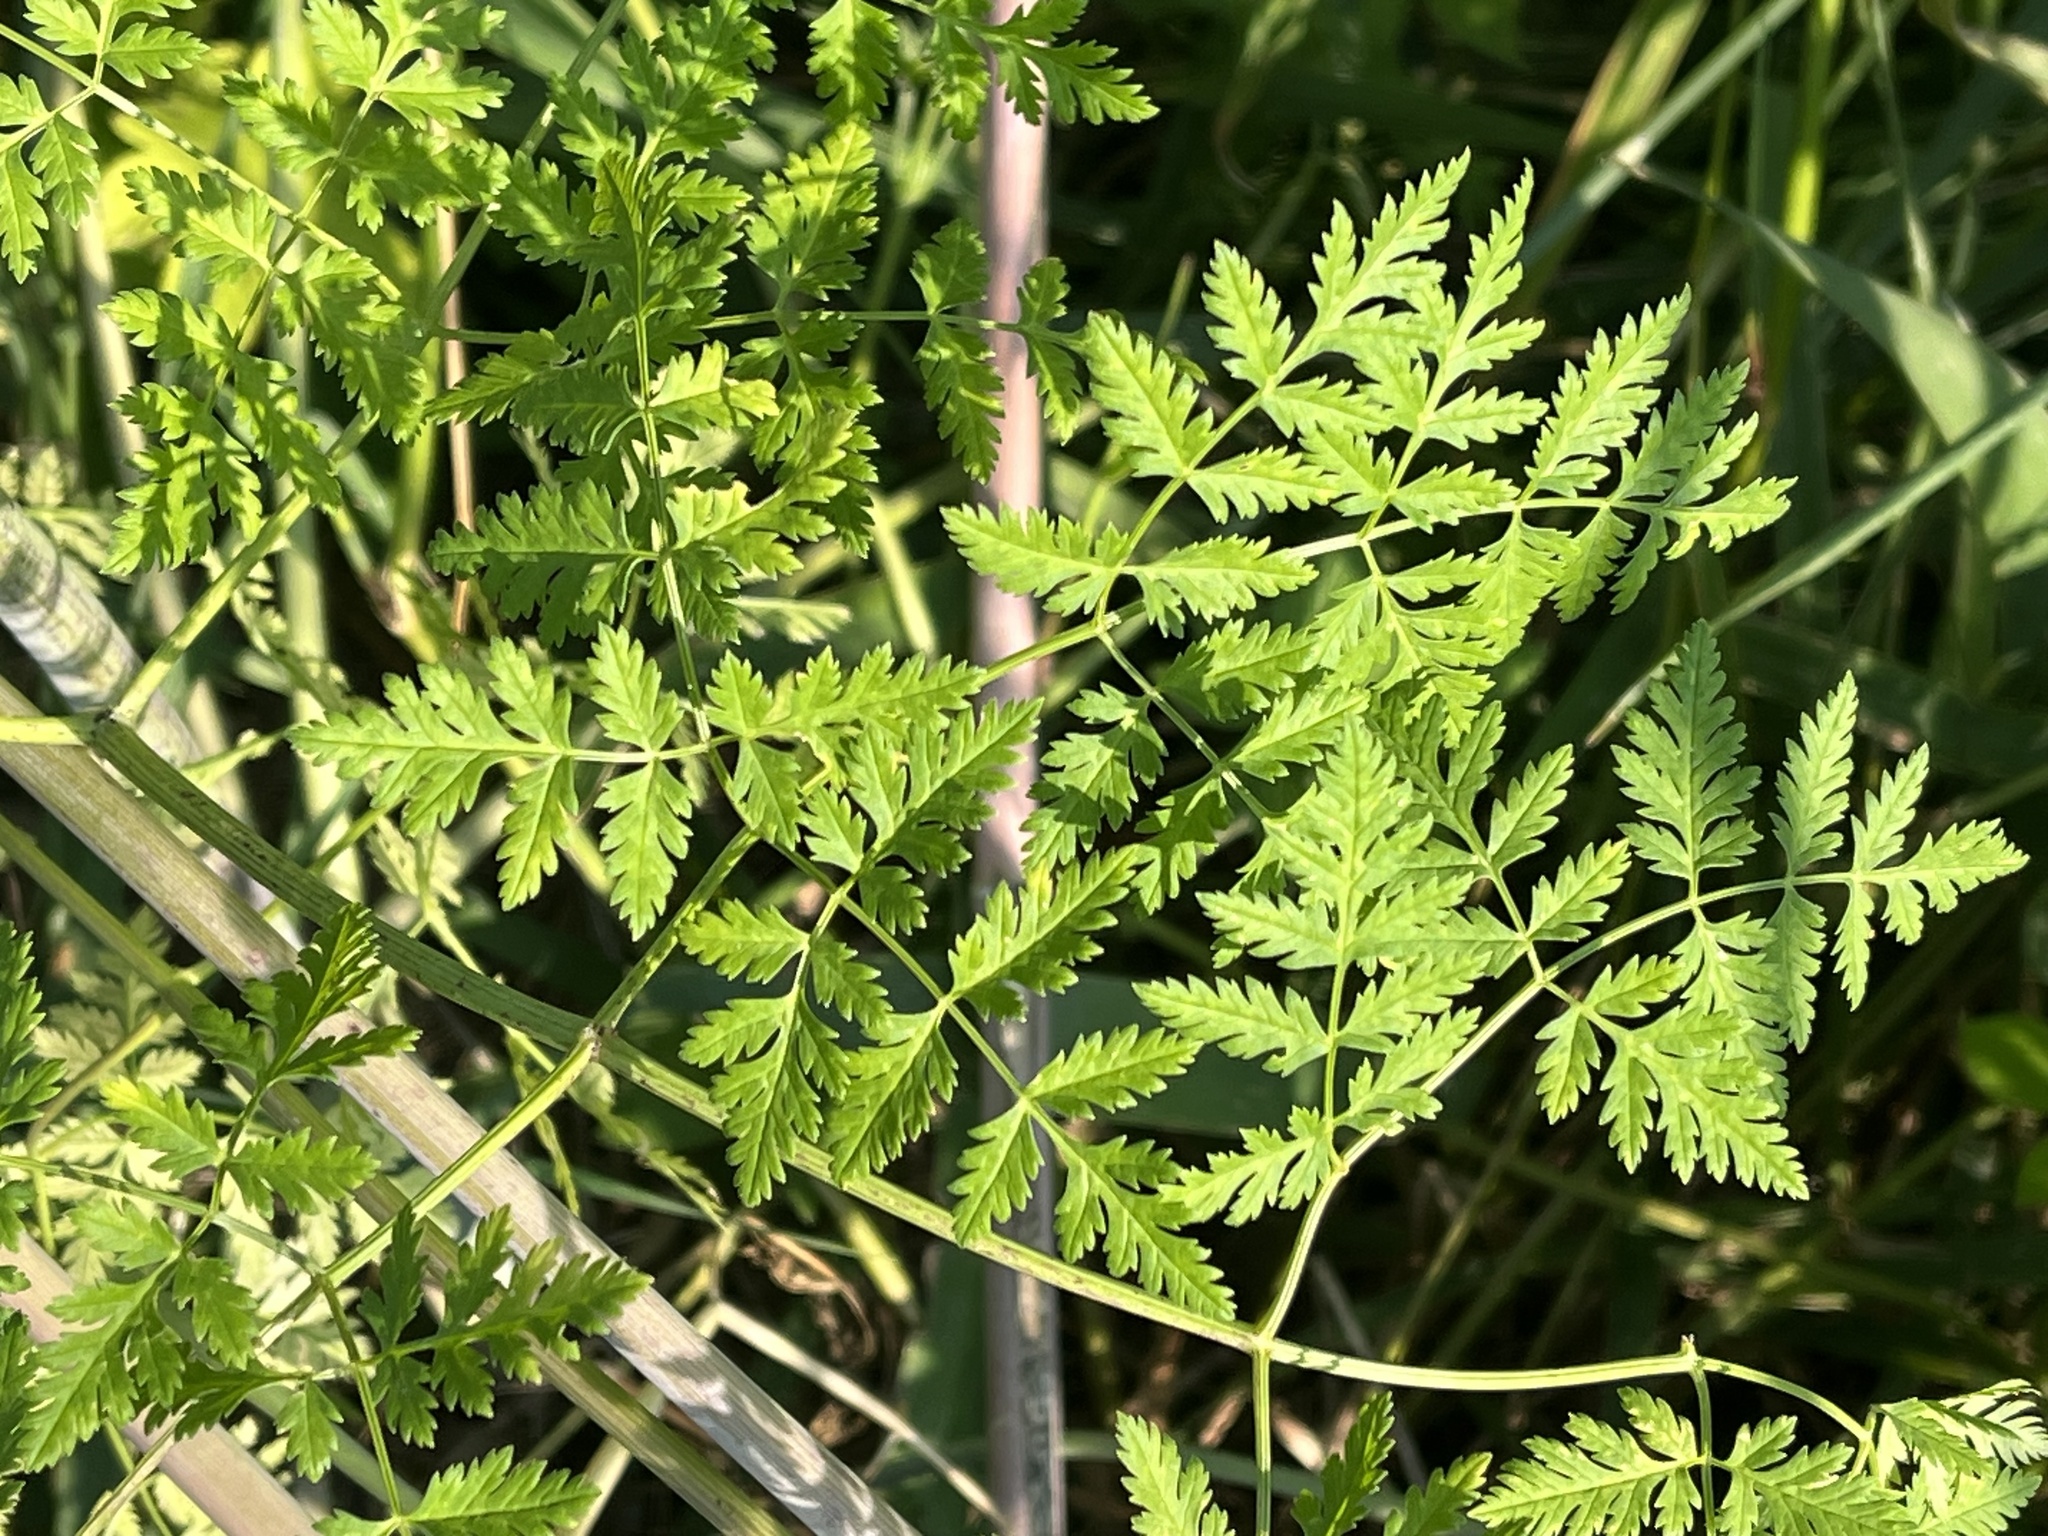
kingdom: Plantae
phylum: Tracheophyta
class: Magnoliopsida
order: Apiales
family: Apiaceae
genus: Conium
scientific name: Conium maculatum
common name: Hemlock
